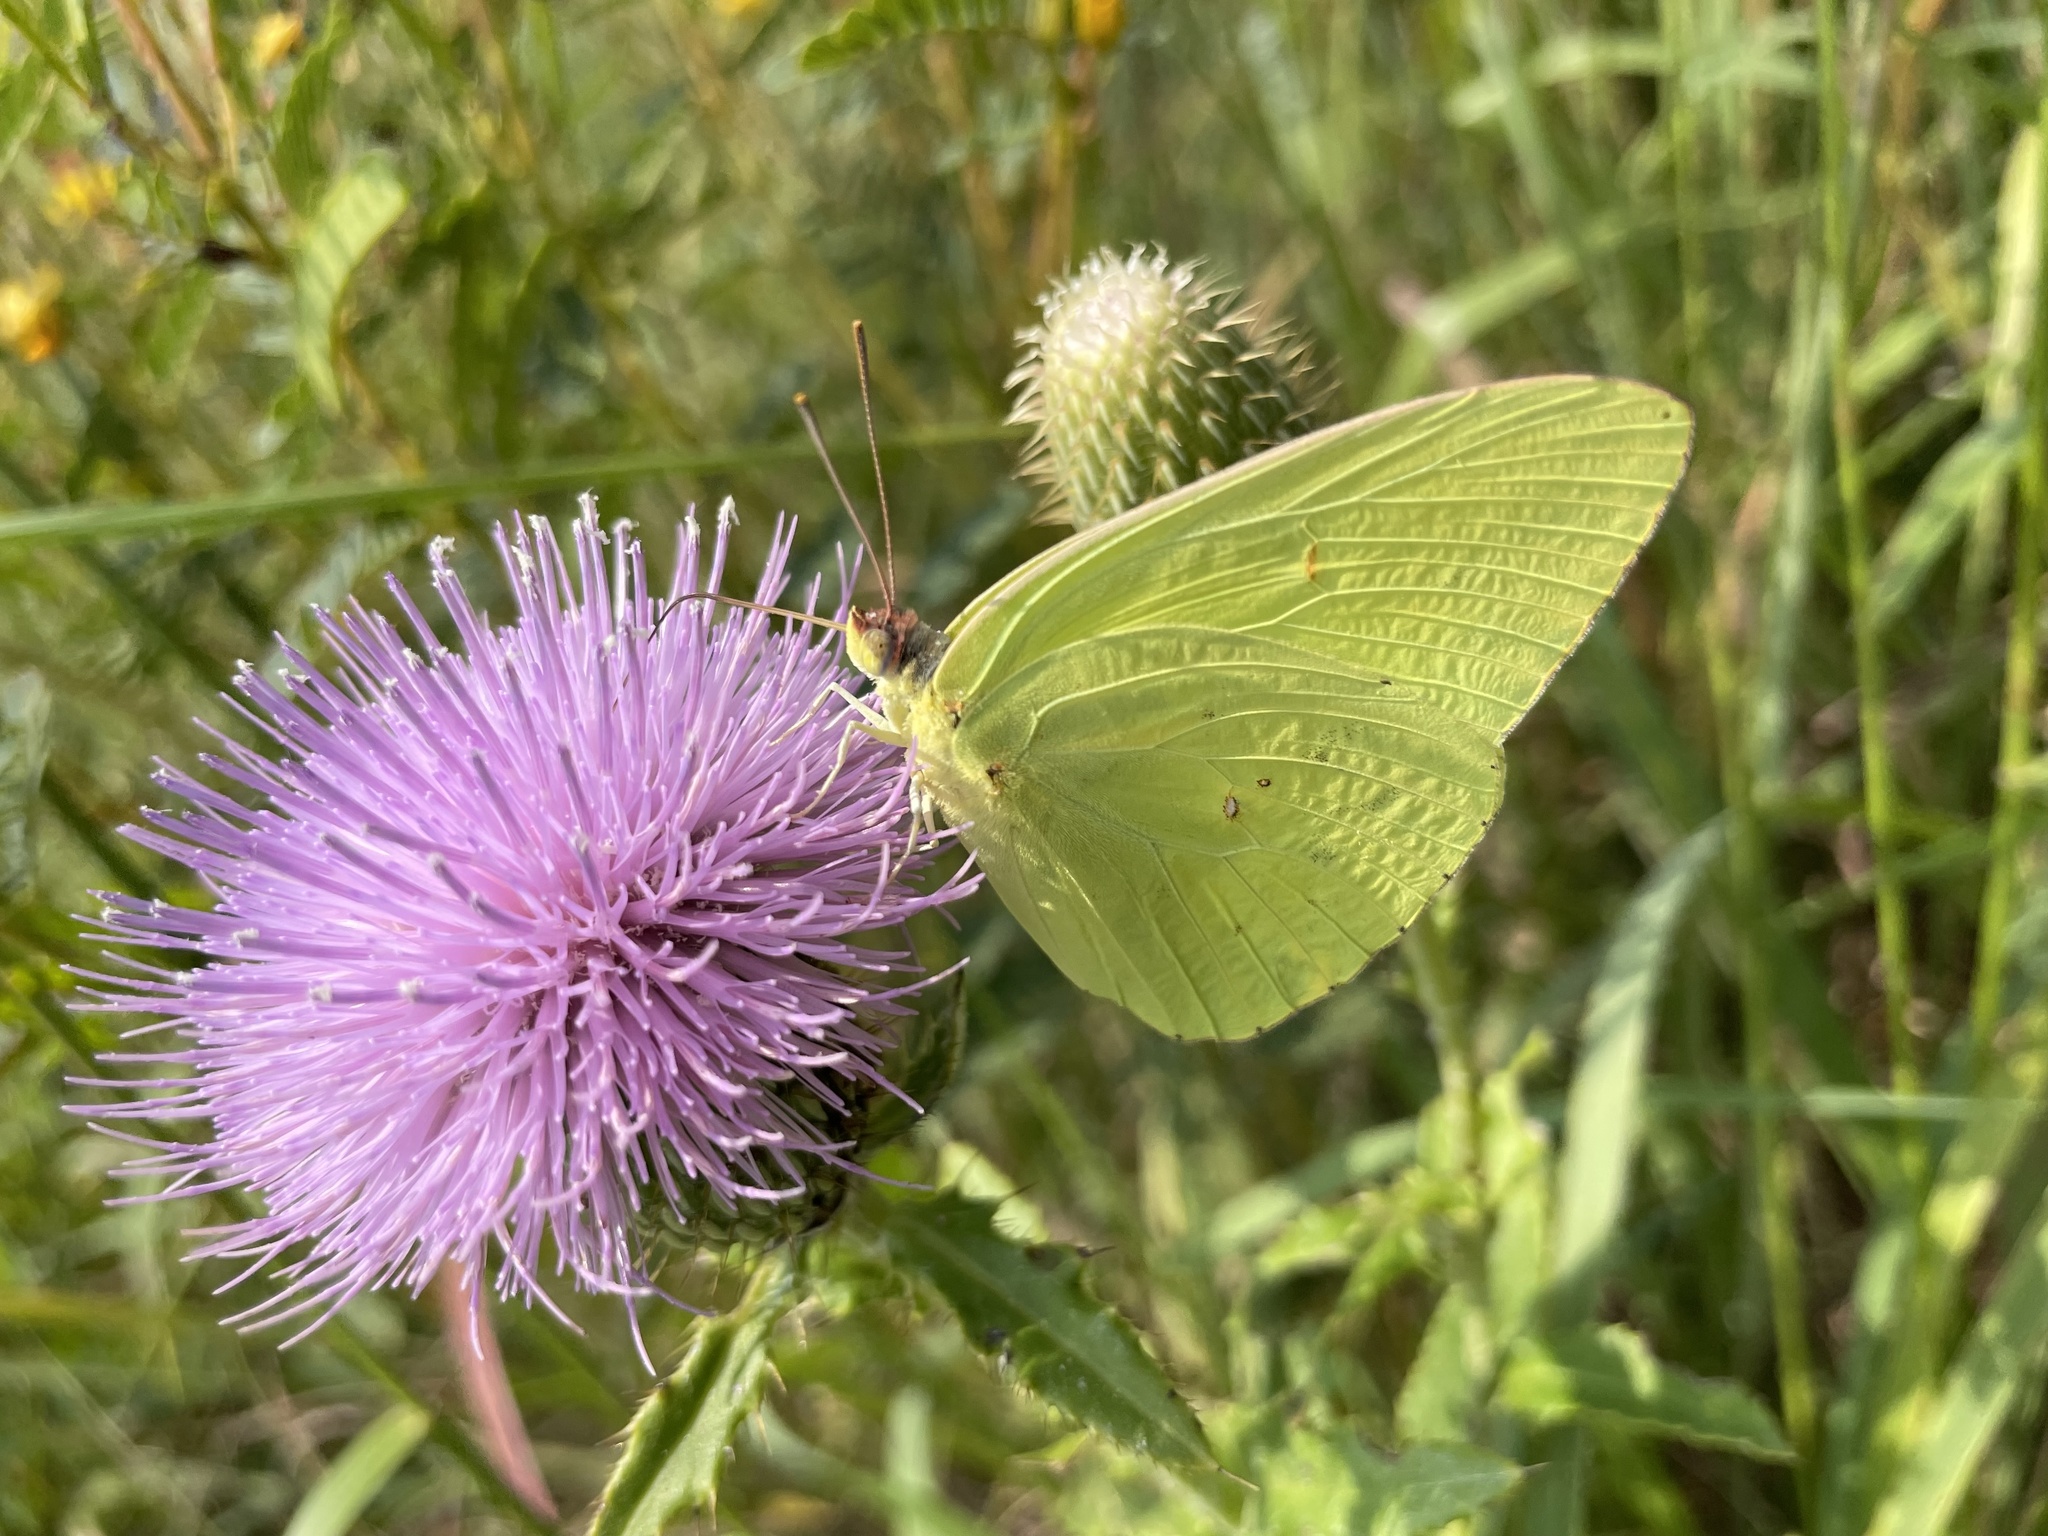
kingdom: Animalia
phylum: Arthropoda
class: Insecta
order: Lepidoptera
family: Pieridae
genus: Phoebis
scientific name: Phoebis sennae
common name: Cloudless sulphur
